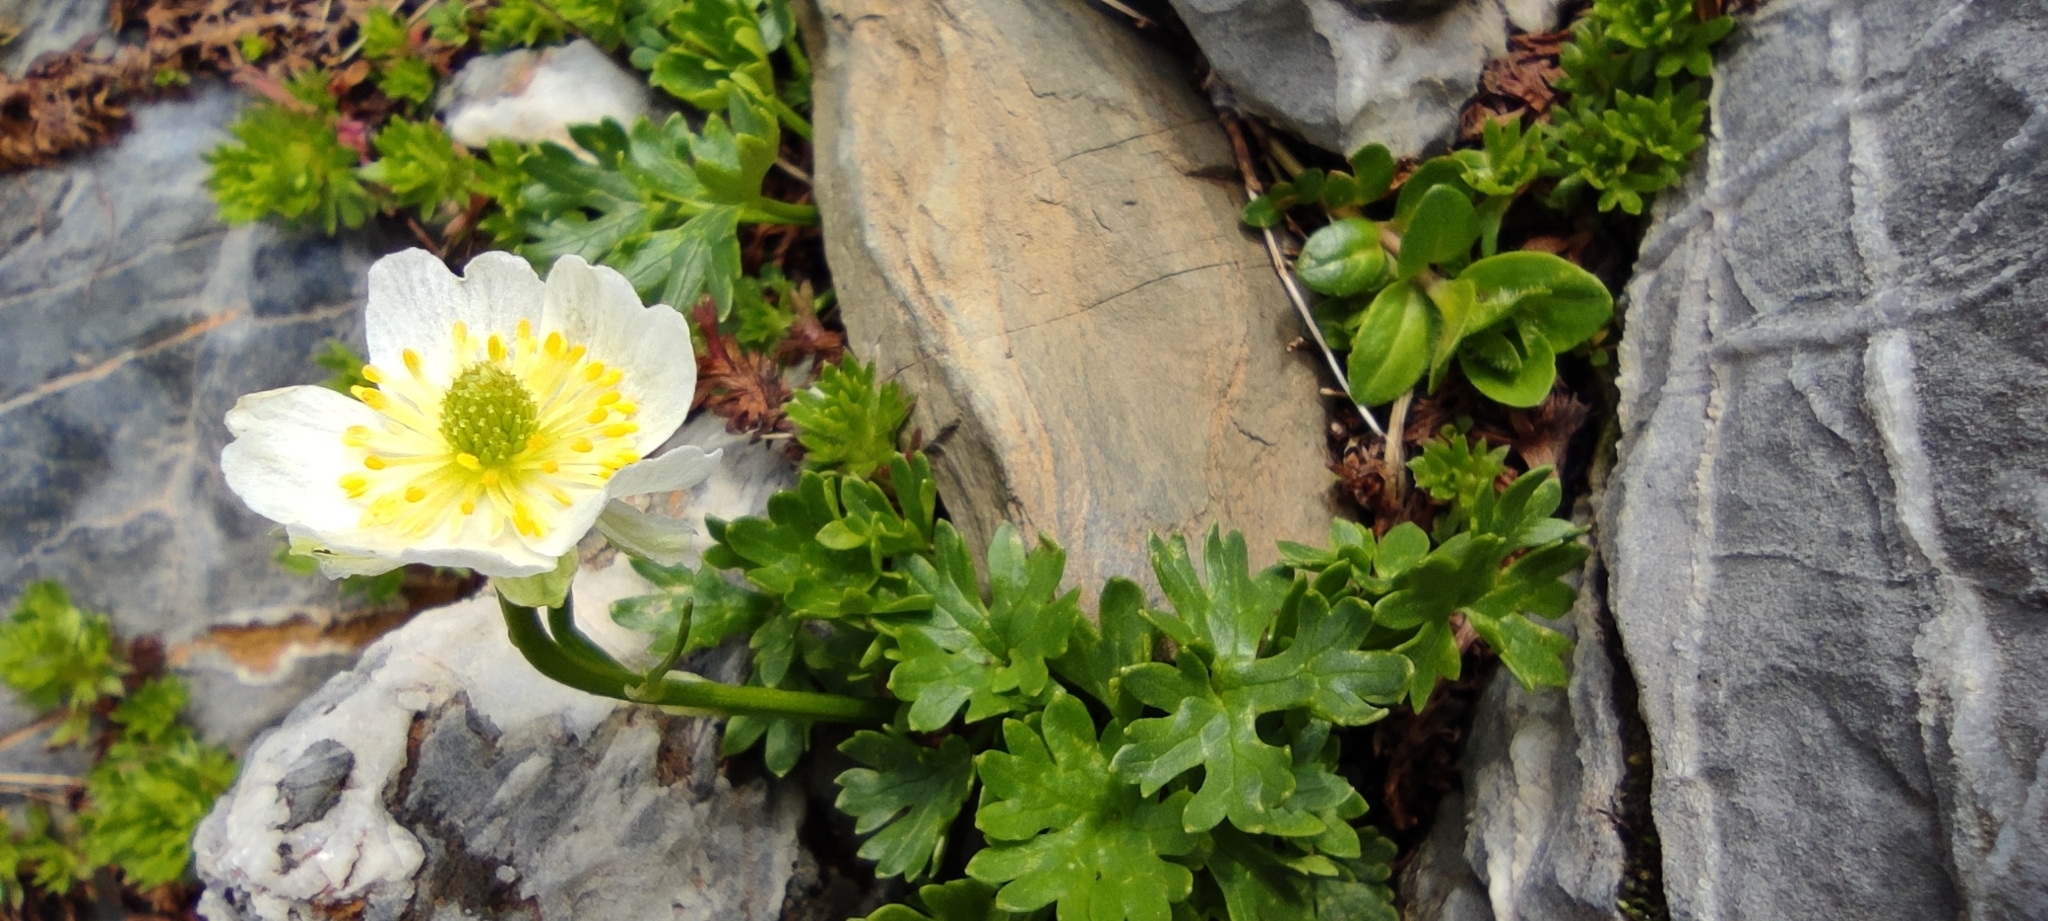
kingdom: Plantae
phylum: Tracheophyta
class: Magnoliopsida
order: Ranunculales
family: Ranunculaceae
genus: Ranunculus
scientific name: Ranunculus alpestris
